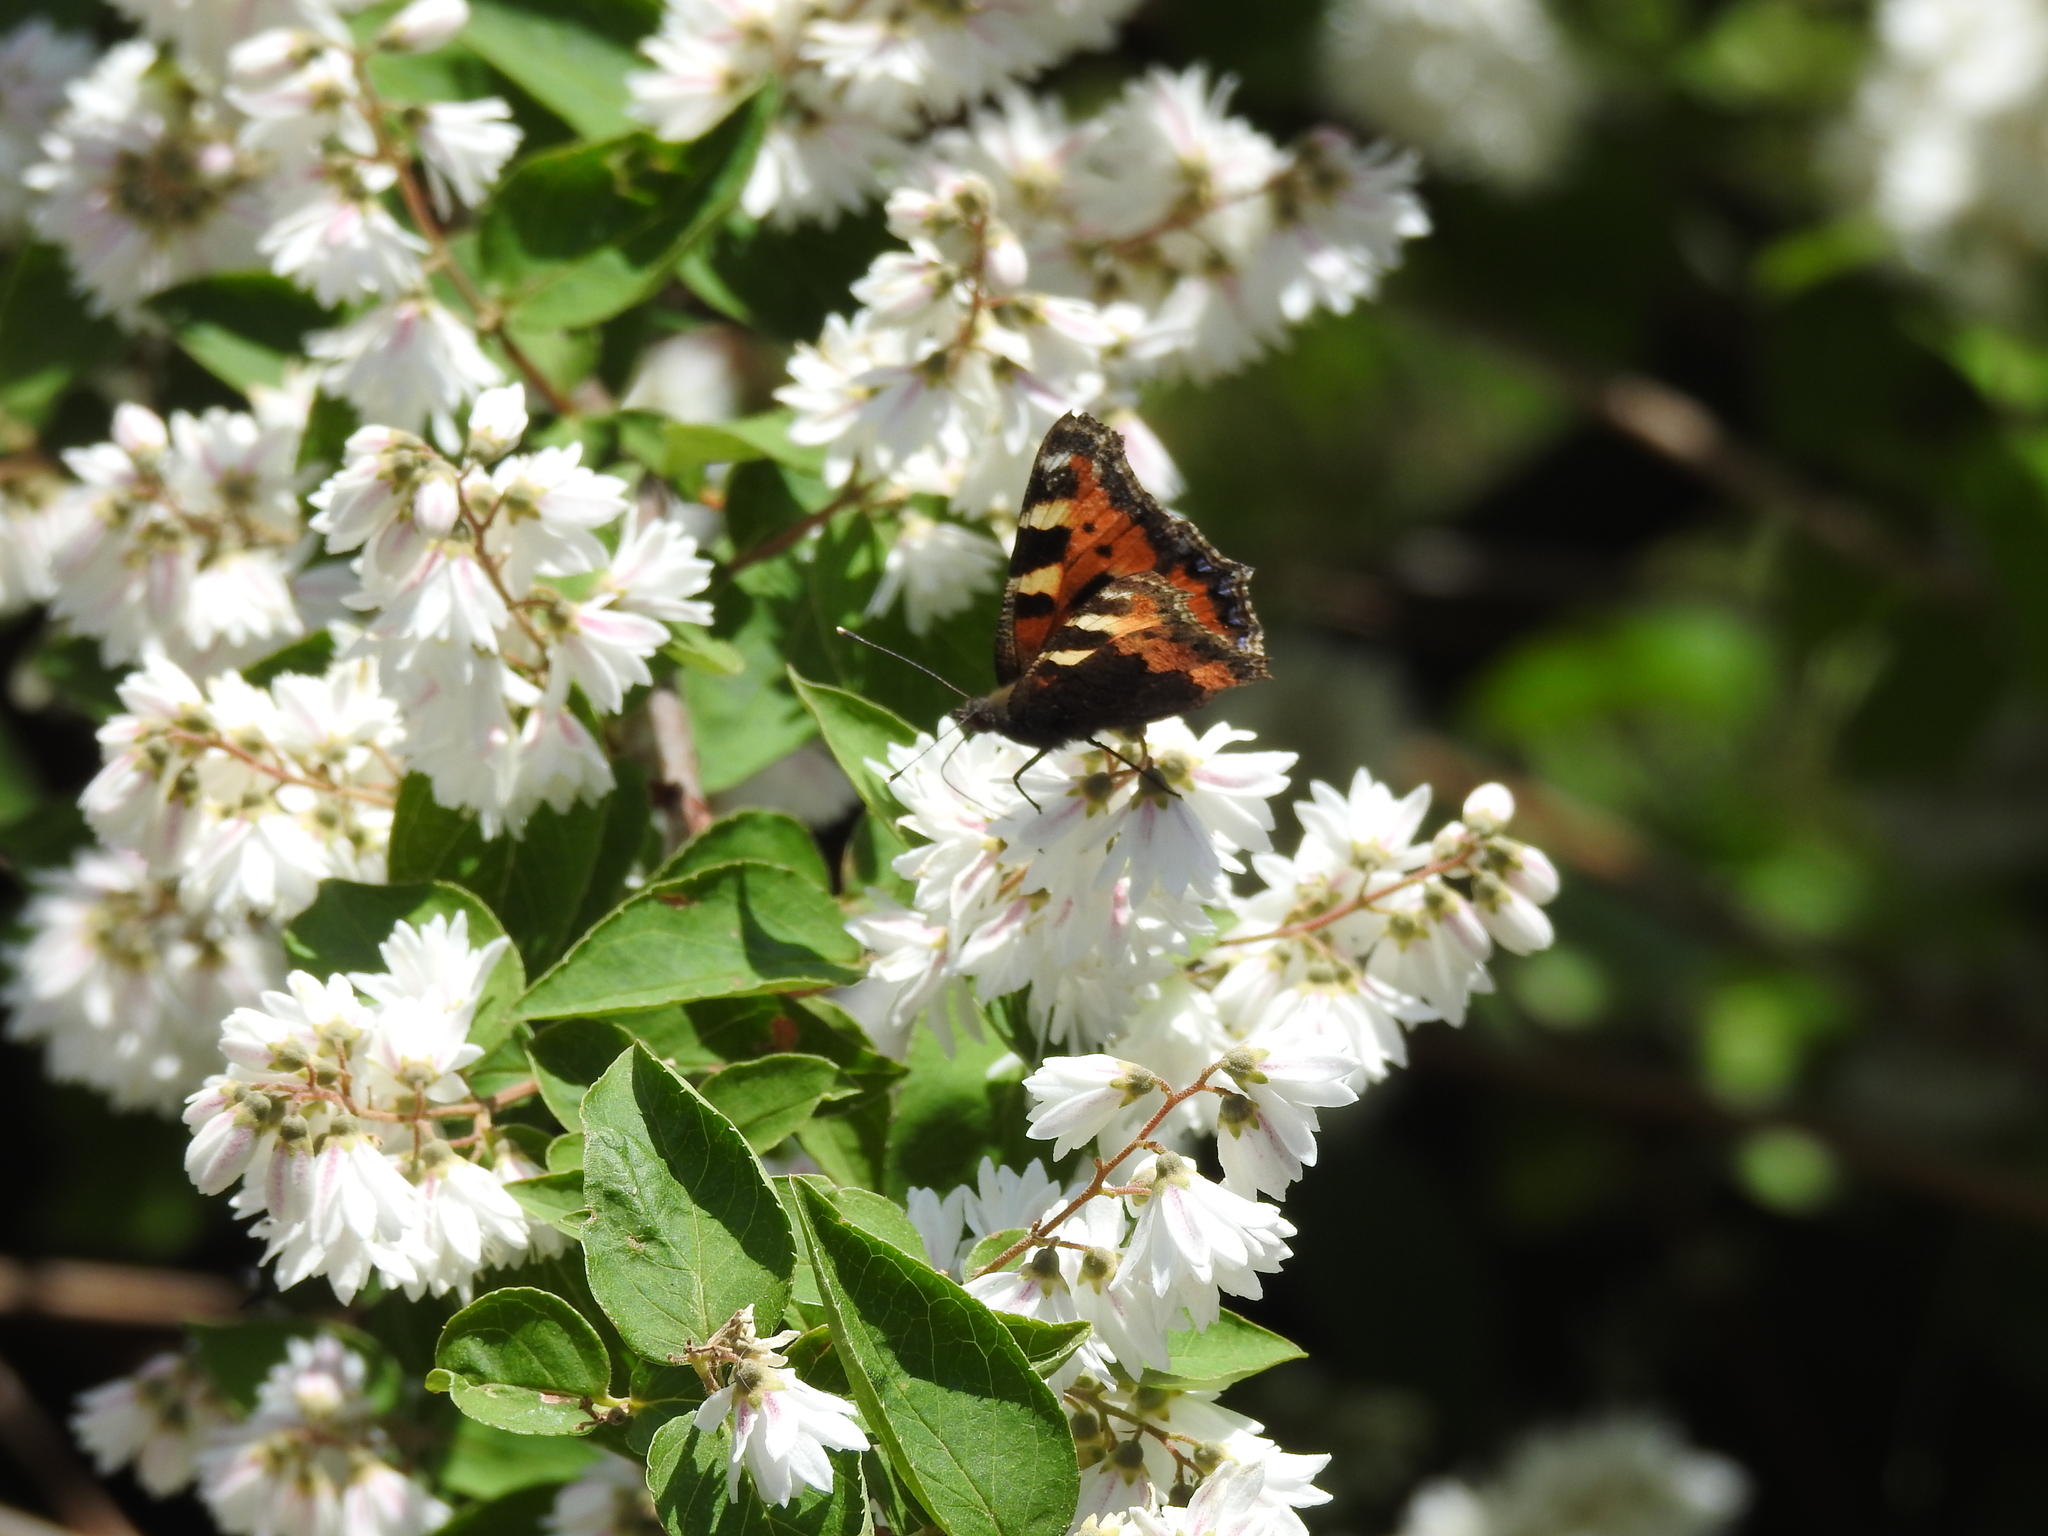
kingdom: Animalia
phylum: Arthropoda
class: Insecta
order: Lepidoptera
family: Nymphalidae
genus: Aglais
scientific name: Aglais urticae
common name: Small tortoiseshell
